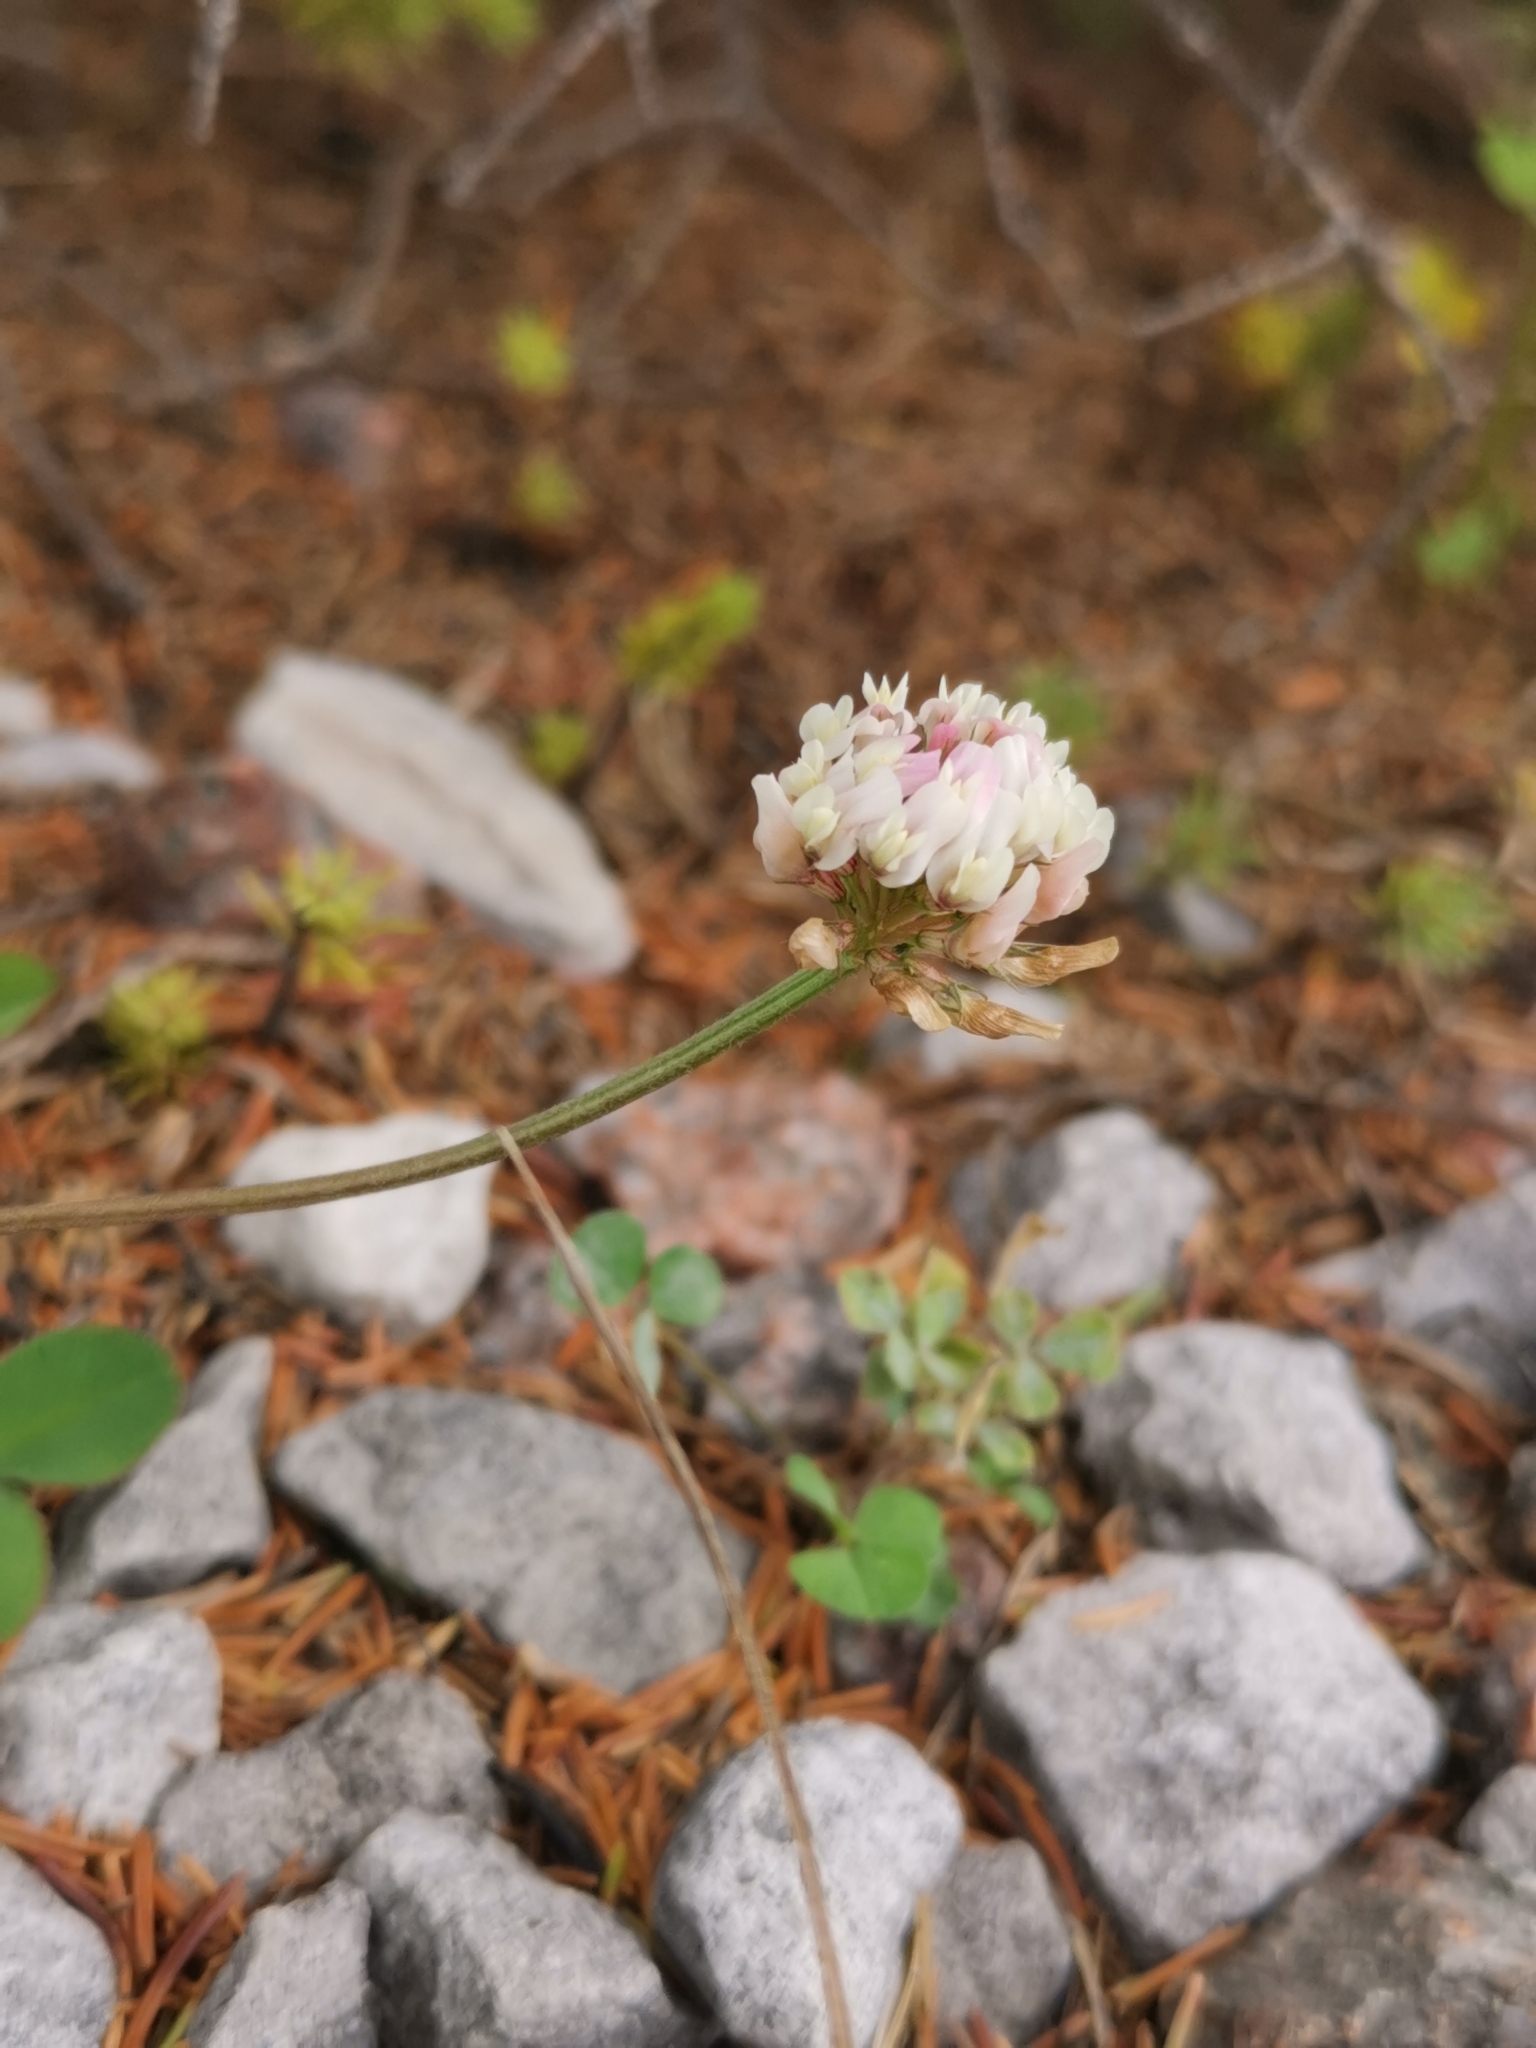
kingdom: Plantae
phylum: Tracheophyta
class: Magnoliopsida
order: Fabales
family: Fabaceae
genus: Trifolium
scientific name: Trifolium repens
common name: White clover
